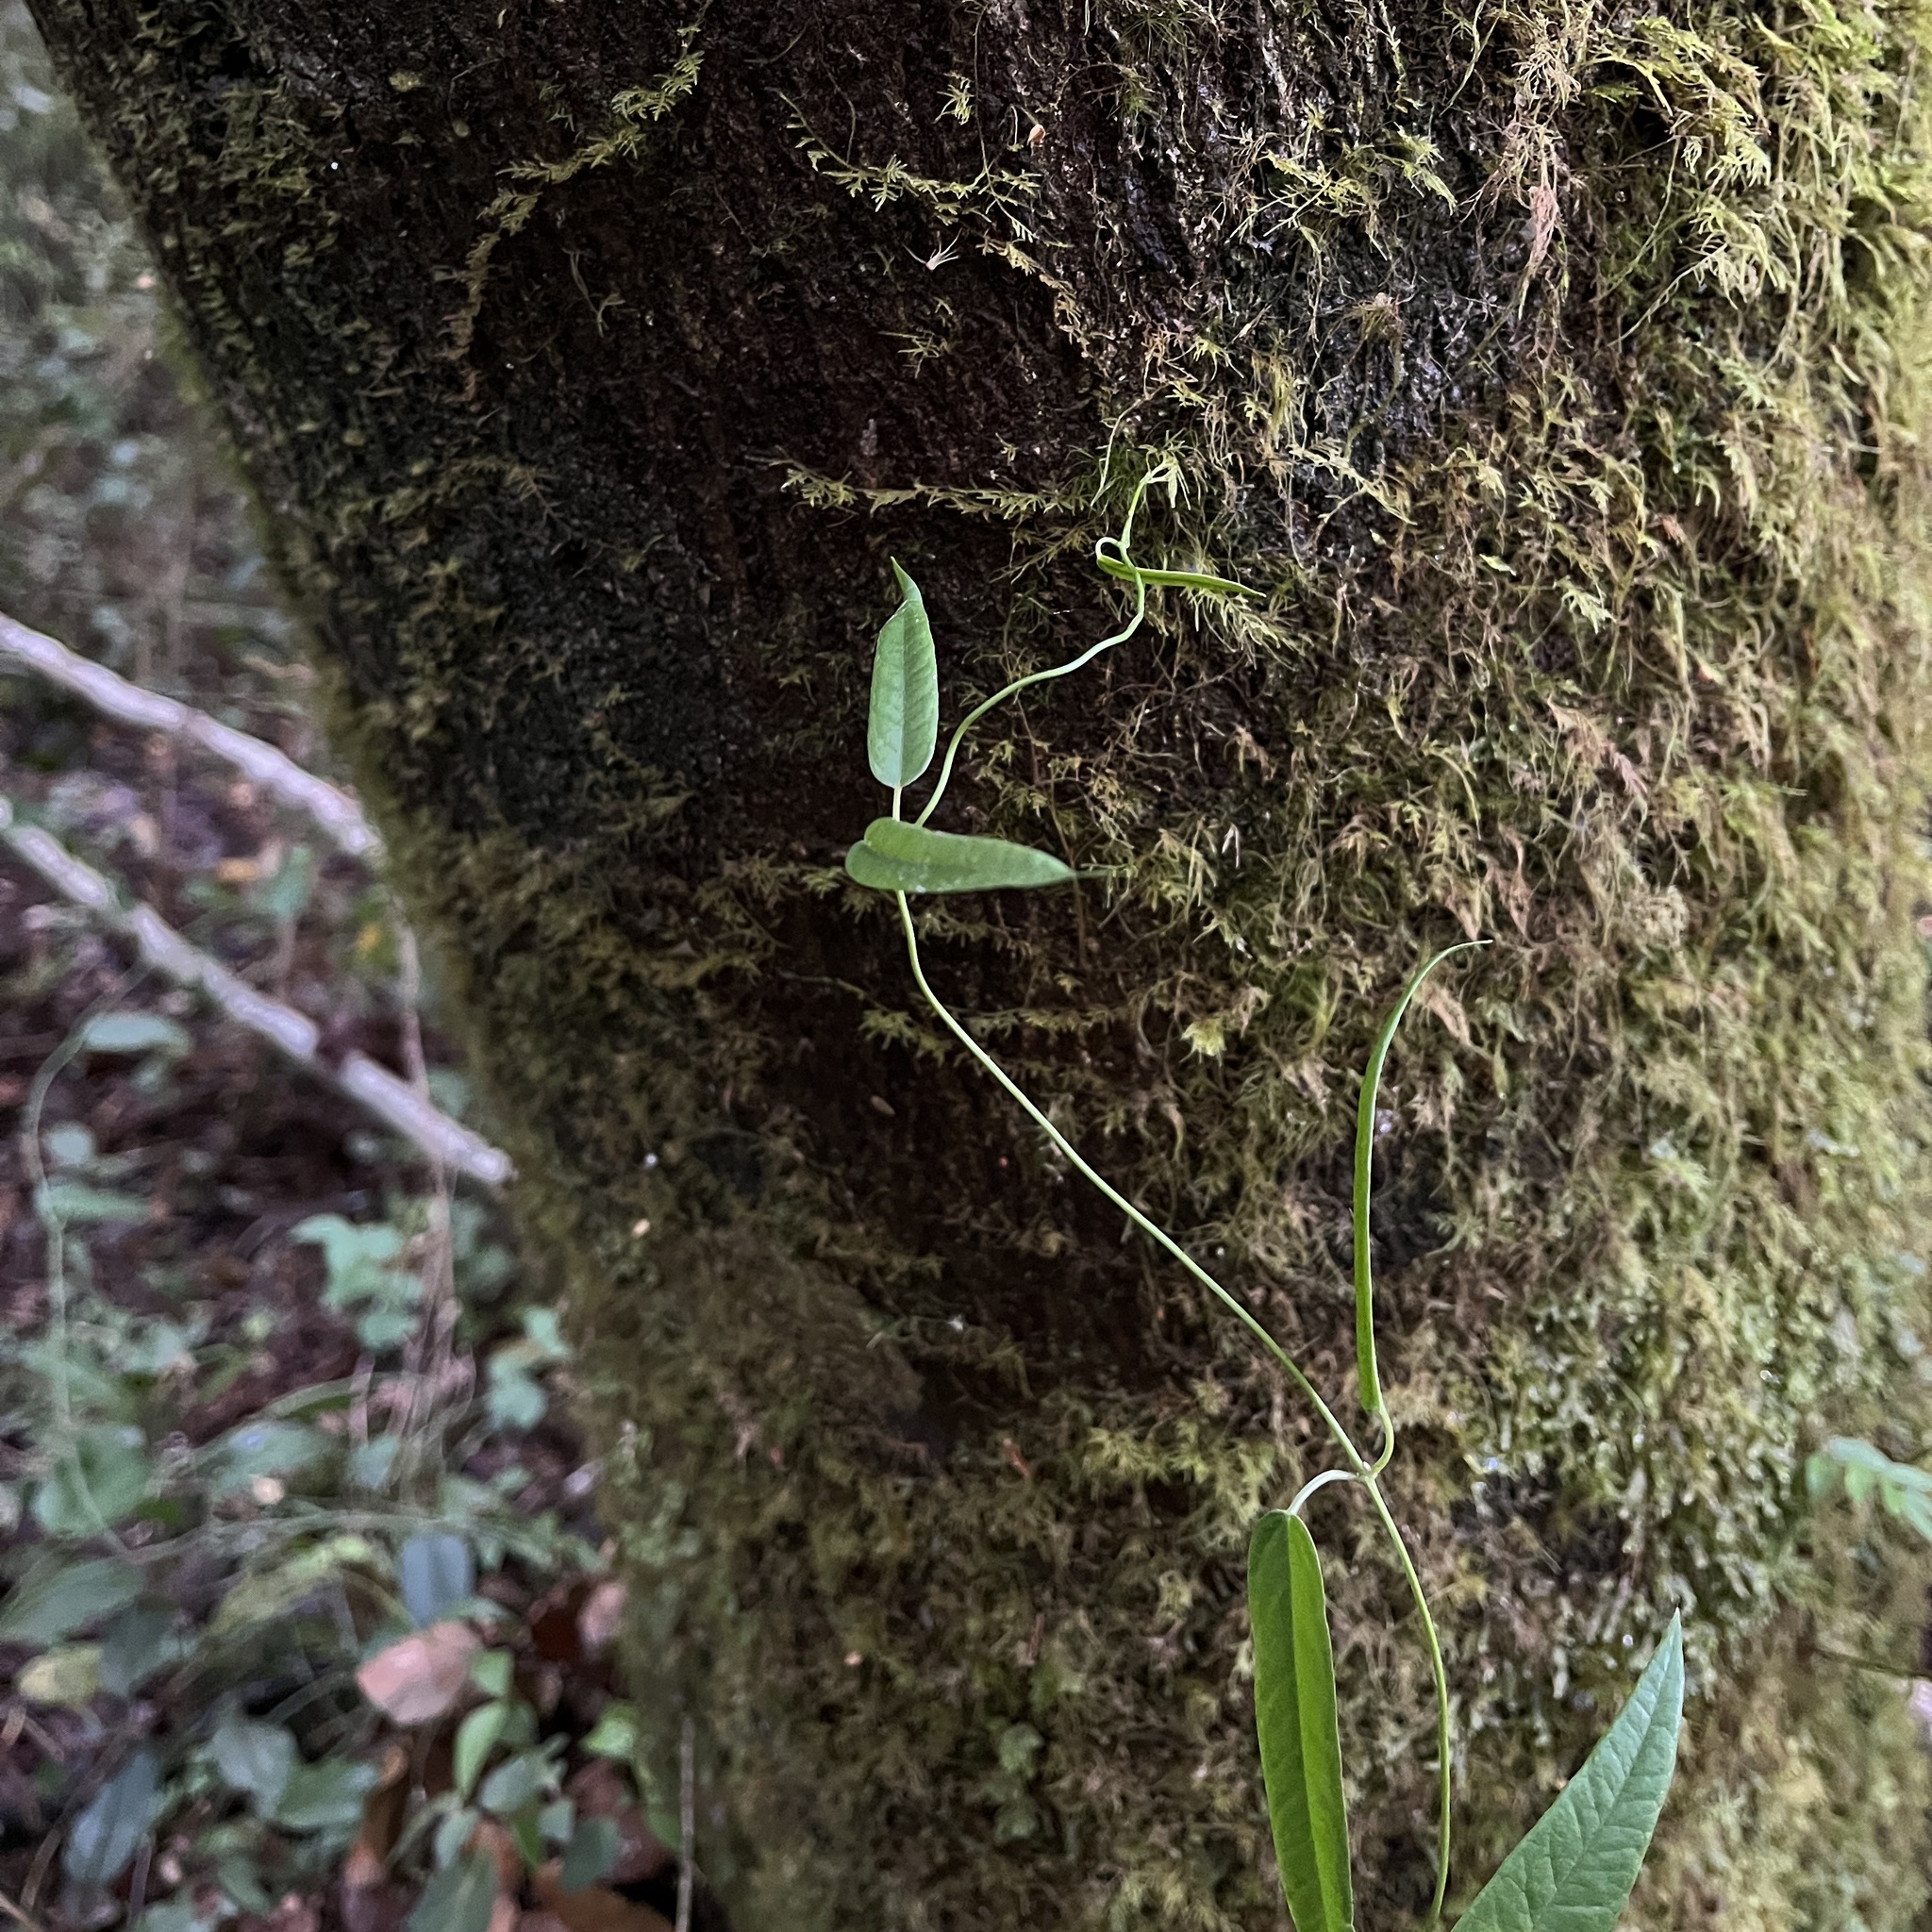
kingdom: Plantae
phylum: Tracheophyta
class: Magnoliopsida
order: Gentianales
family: Apocynaceae
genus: Diplolepis
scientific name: Diplolepis pachyphylla
